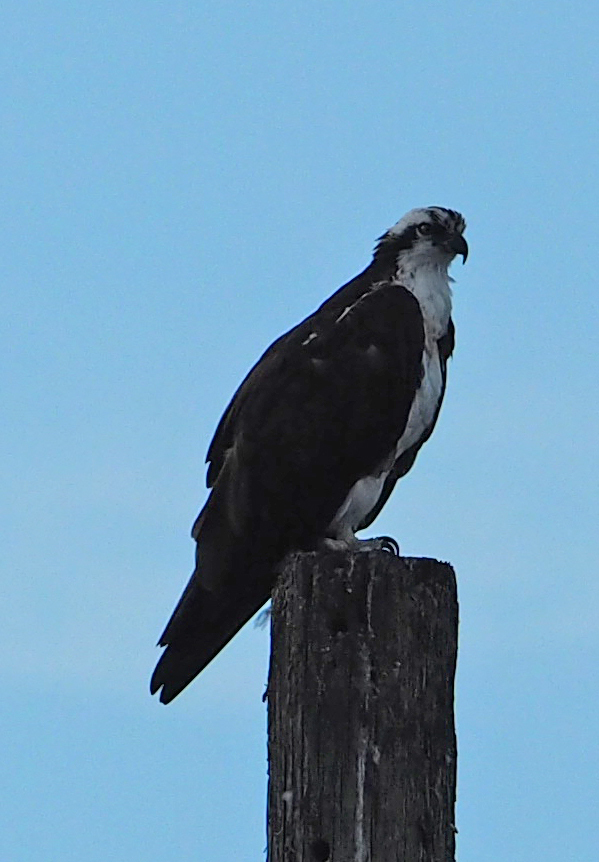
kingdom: Animalia
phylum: Chordata
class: Aves
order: Accipitriformes
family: Pandionidae
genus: Pandion
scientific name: Pandion haliaetus
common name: Osprey
